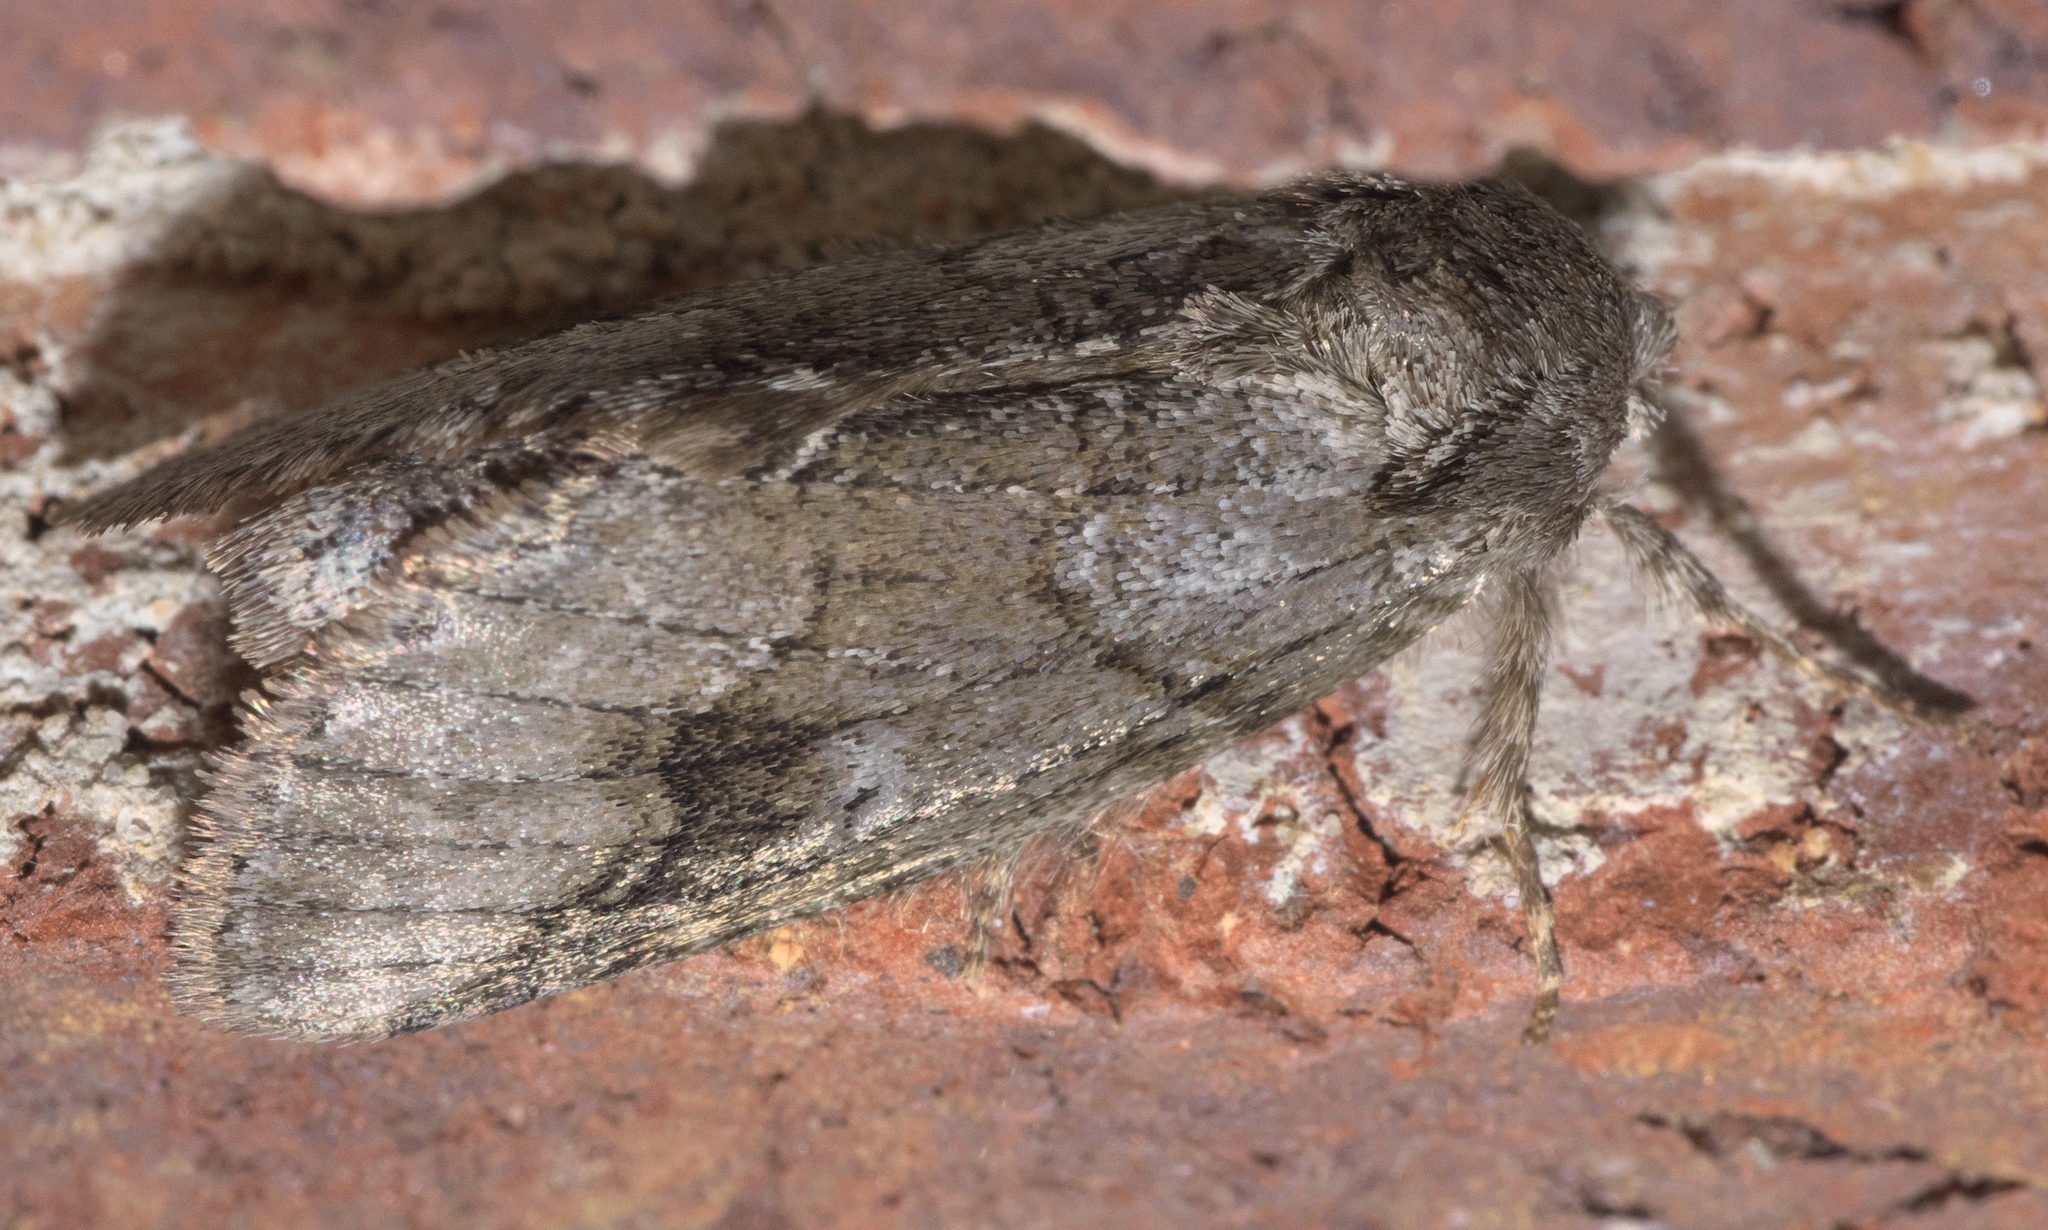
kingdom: Animalia
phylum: Arthropoda
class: Insecta
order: Lepidoptera
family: Notodontidae
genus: Lochmaeus
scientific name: Lochmaeus bilineata
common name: Double-lined prominent
